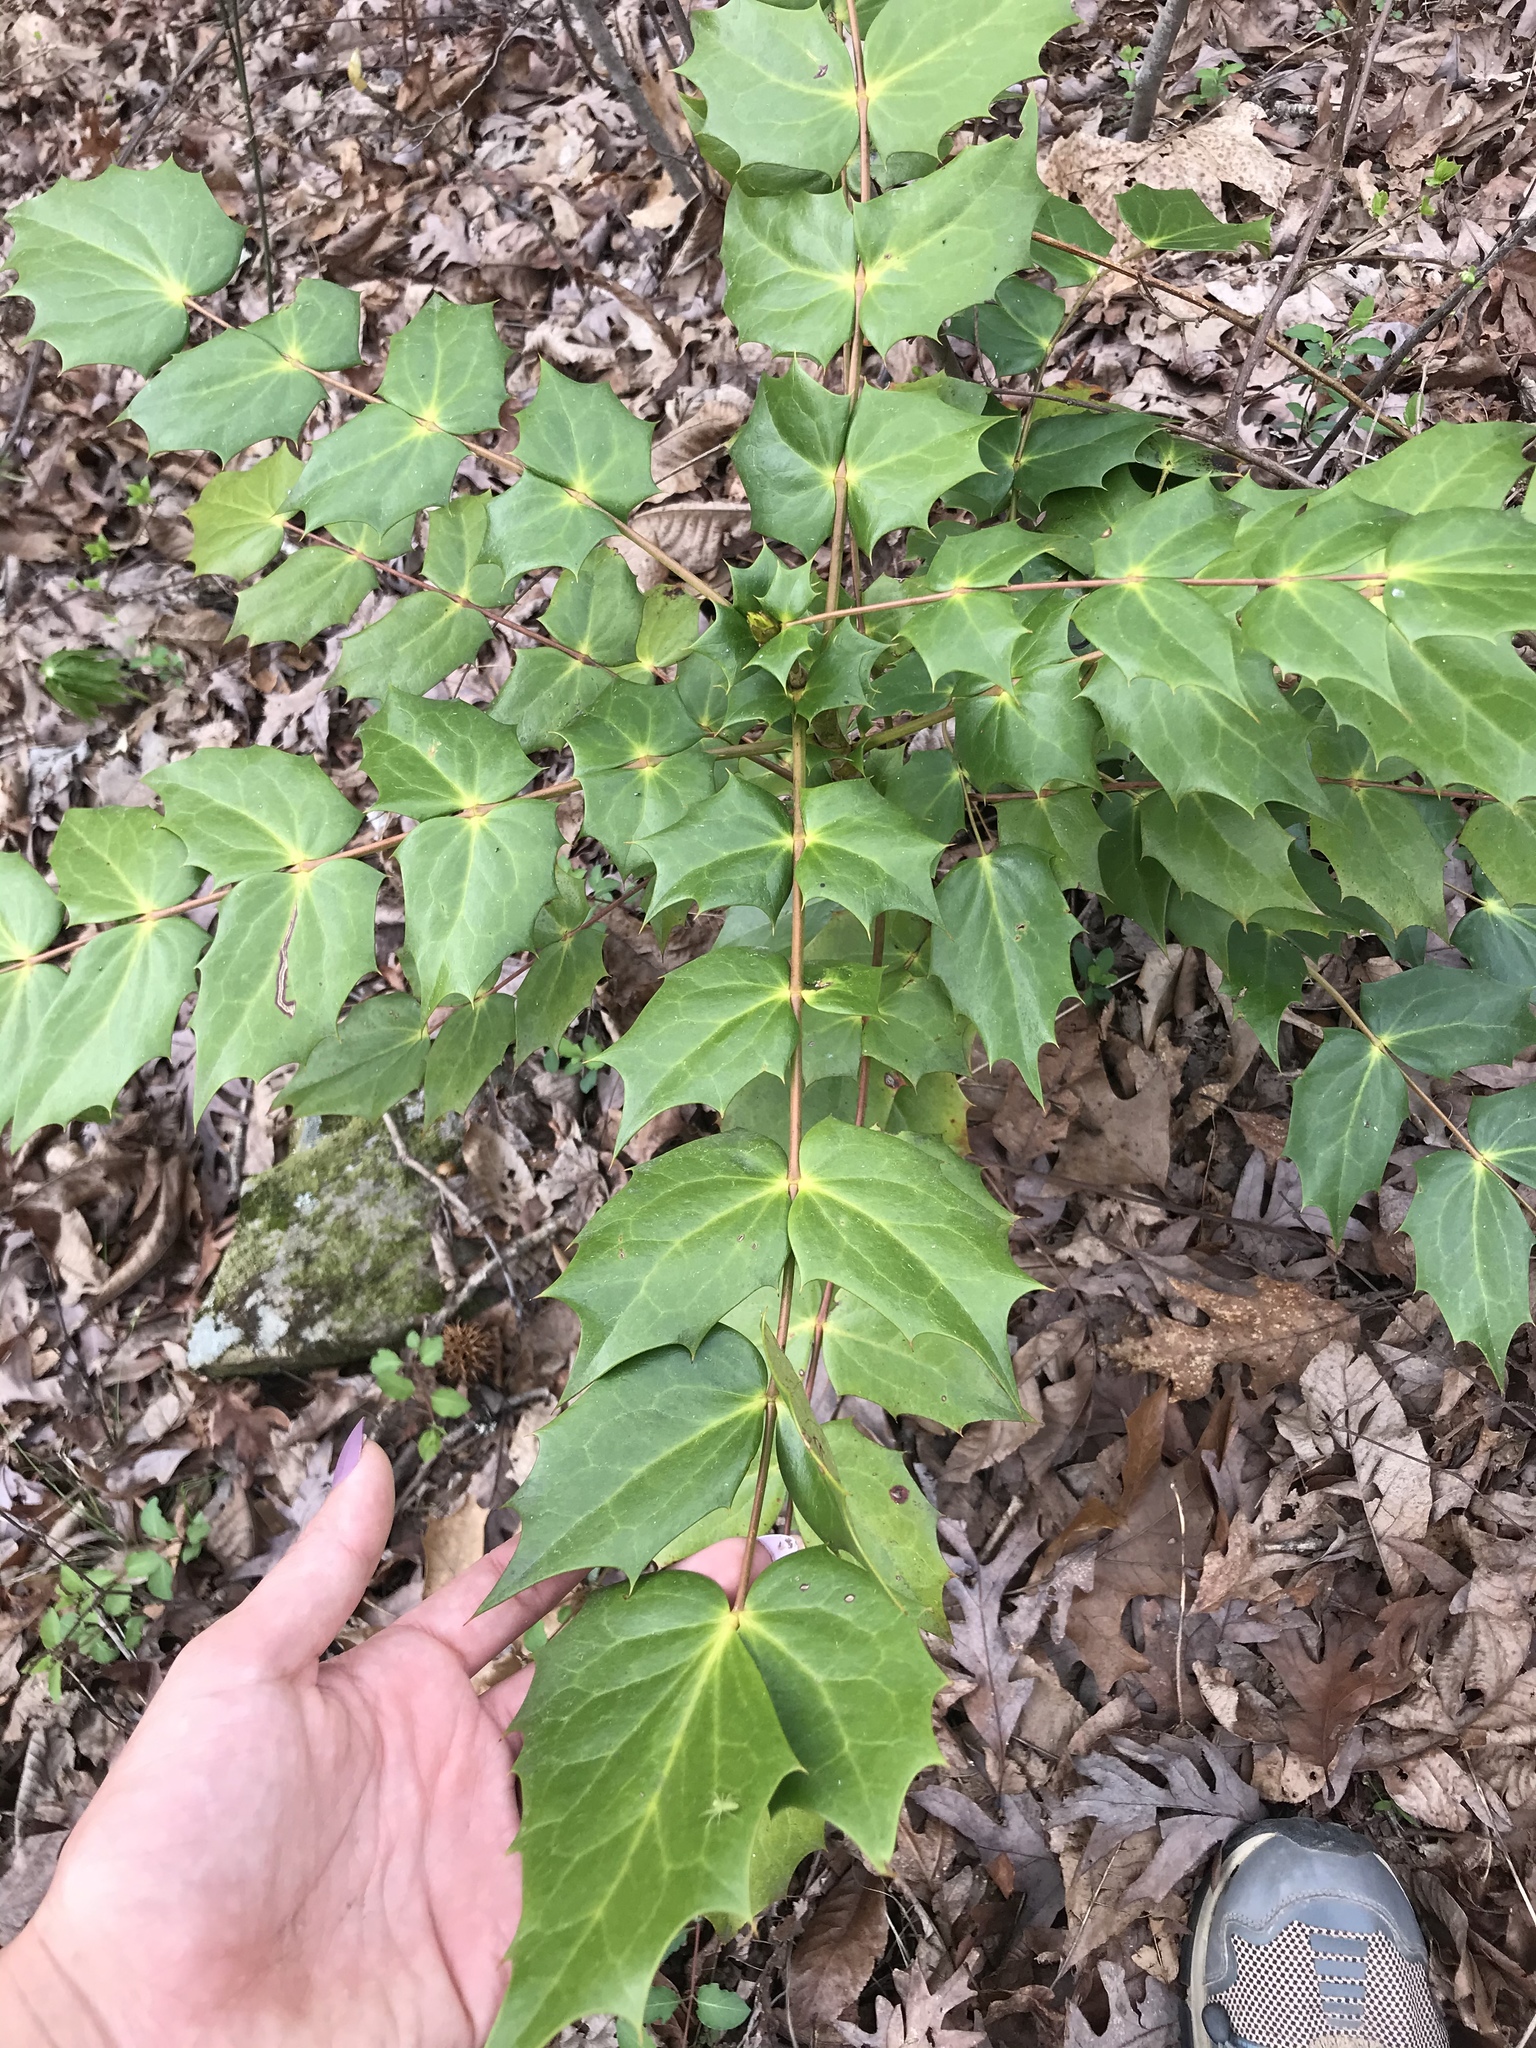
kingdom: Plantae
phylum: Tracheophyta
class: Magnoliopsida
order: Ranunculales
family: Berberidaceae
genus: Mahonia
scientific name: Mahonia bealei
